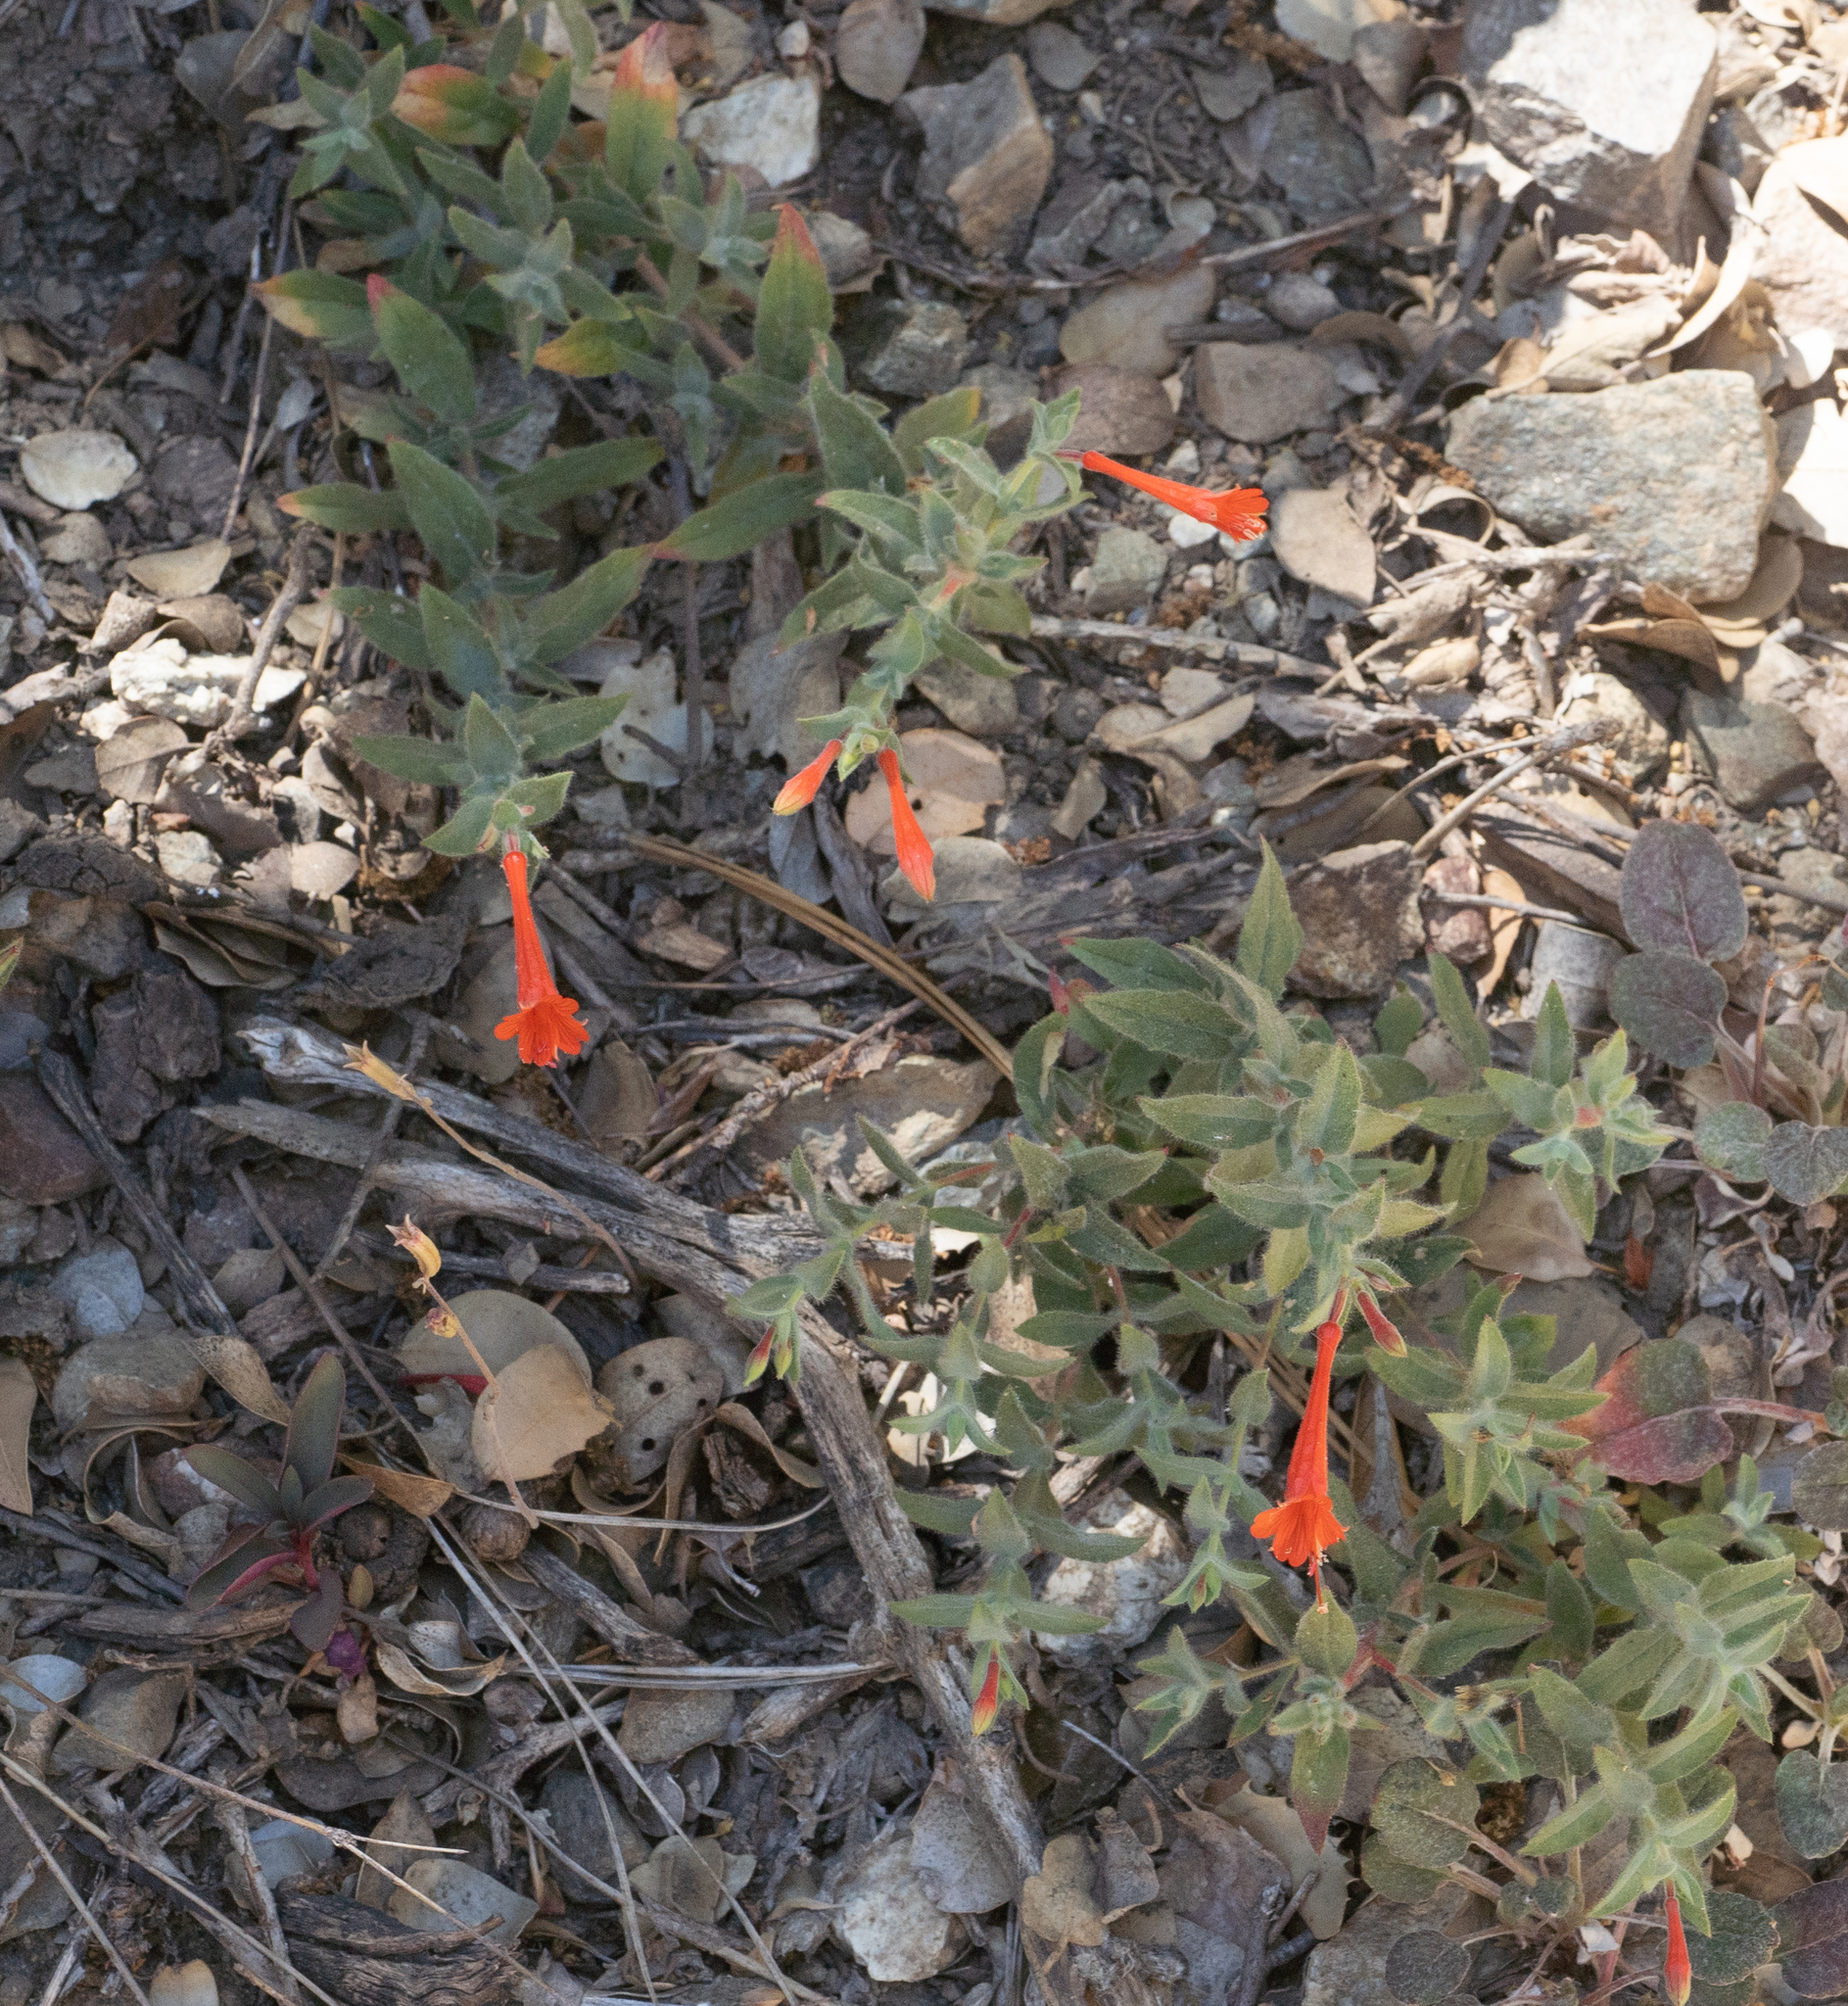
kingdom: Plantae
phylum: Tracheophyta
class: Magnoliopsida
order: Myrtales
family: Onagraceae
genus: Epilobium
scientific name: Epilobium canum
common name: California-fuchsia
